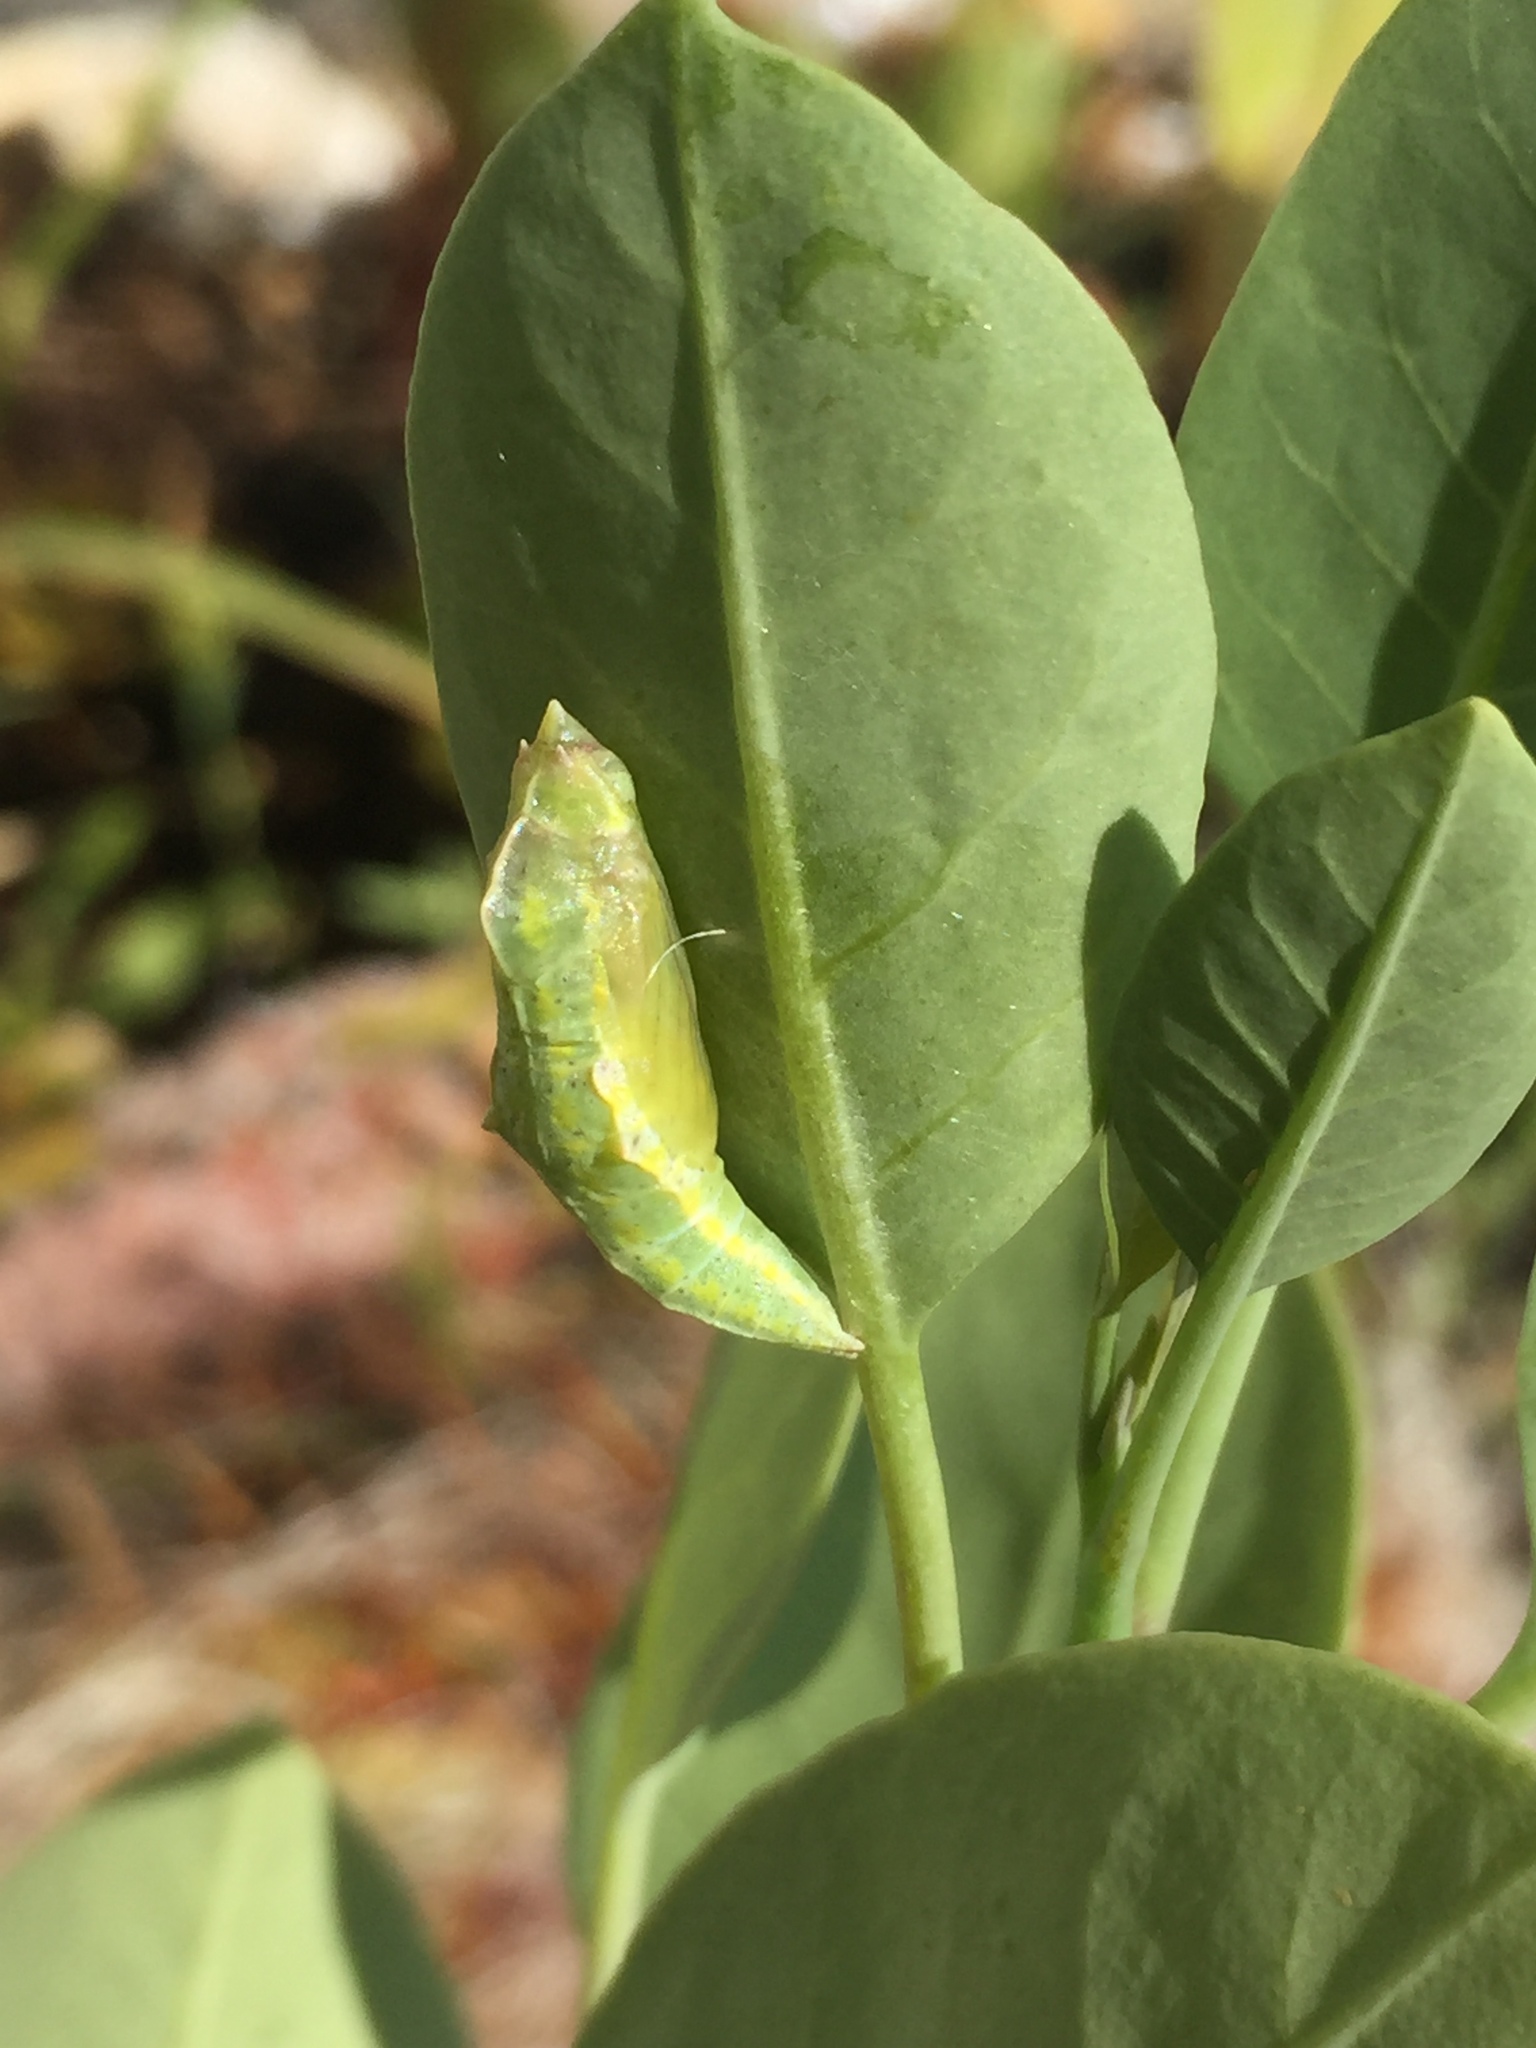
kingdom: Animalia
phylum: Arthropoda
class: Insecta
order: Lepidoptera
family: Pieridae
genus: Pieris
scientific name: Pieris rapae
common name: Small white
